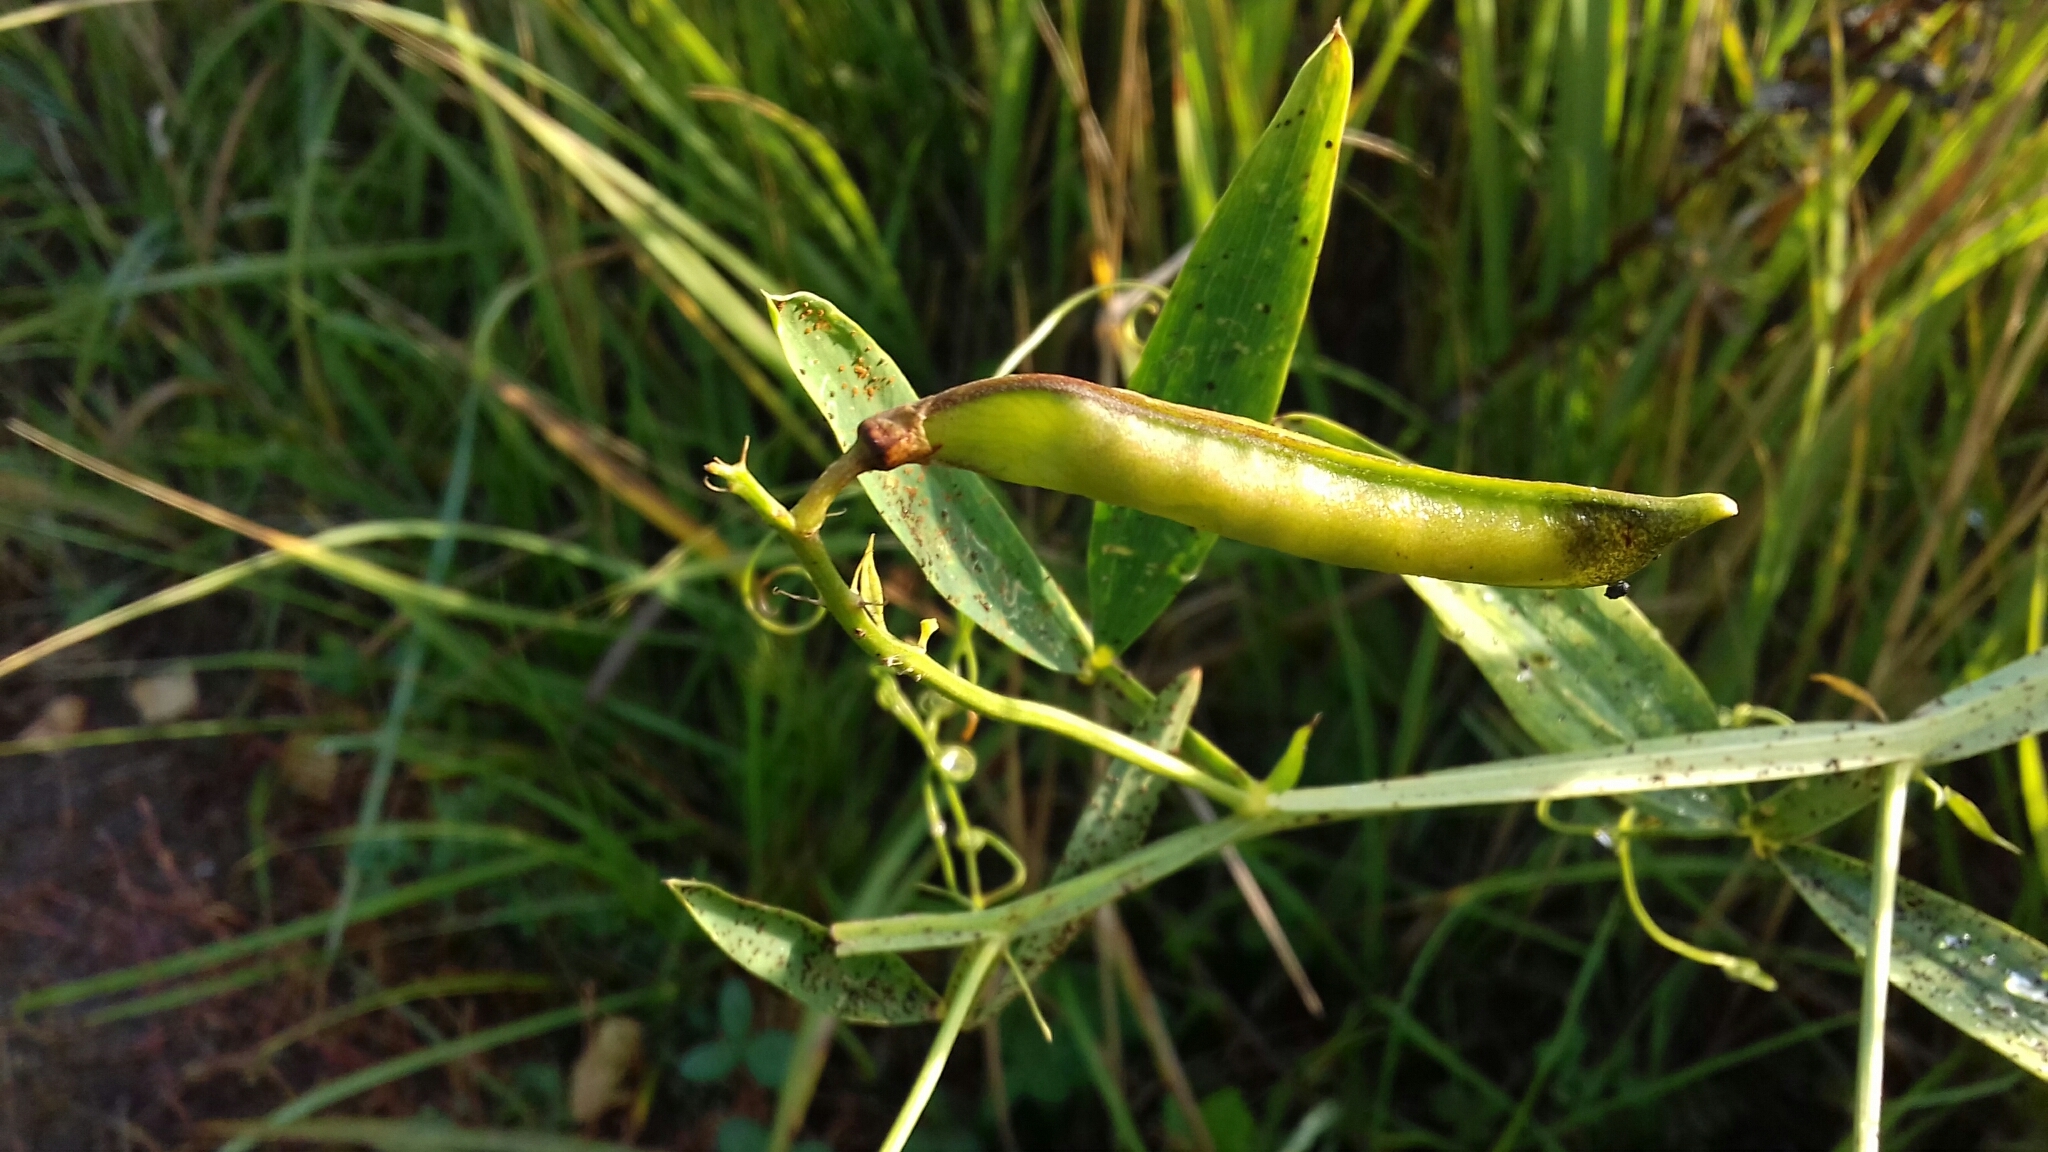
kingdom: Plantae
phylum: Tracheophyta
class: Magnoliopsida
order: Fabales
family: Fabaceae
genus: Lathyrus
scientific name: Lathyrus sylvestris
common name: Flat pea
